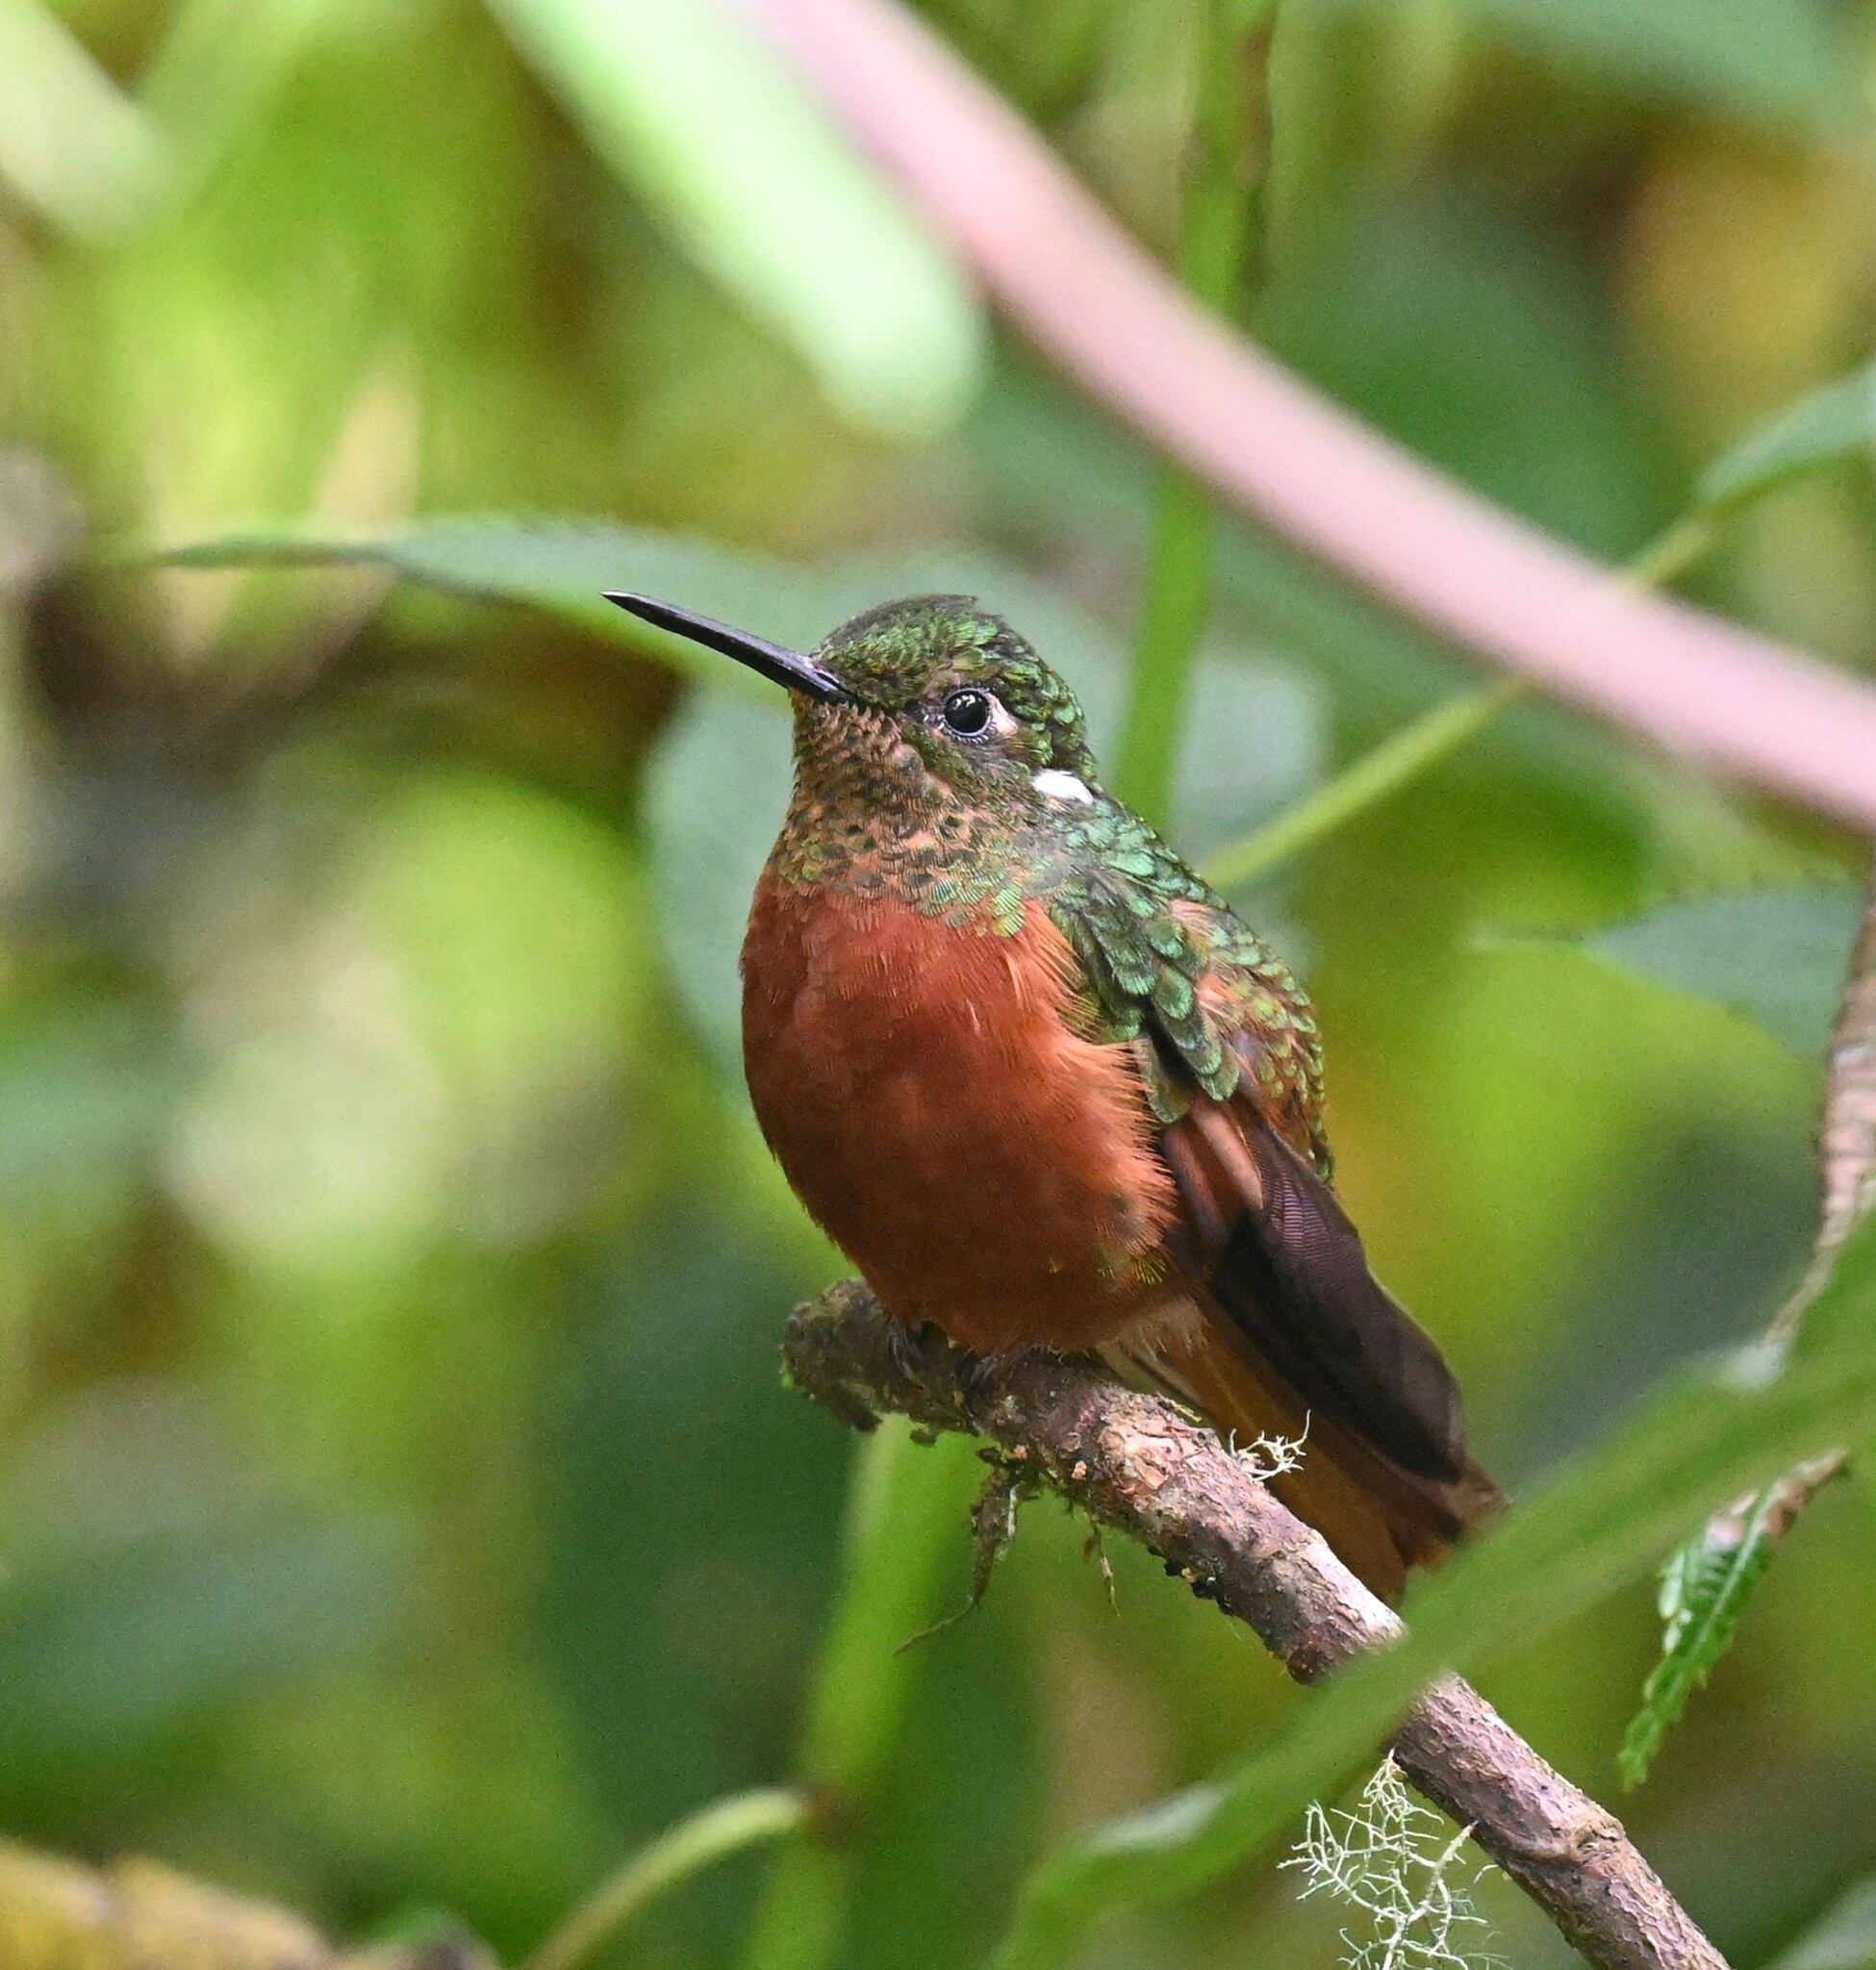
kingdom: Animalia
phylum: Chordata
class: Aves
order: Apodiformes
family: Trochilidae
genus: Boissonneaua
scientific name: Boissonneaua matthewsii
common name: Chestnut-breasted coronet
